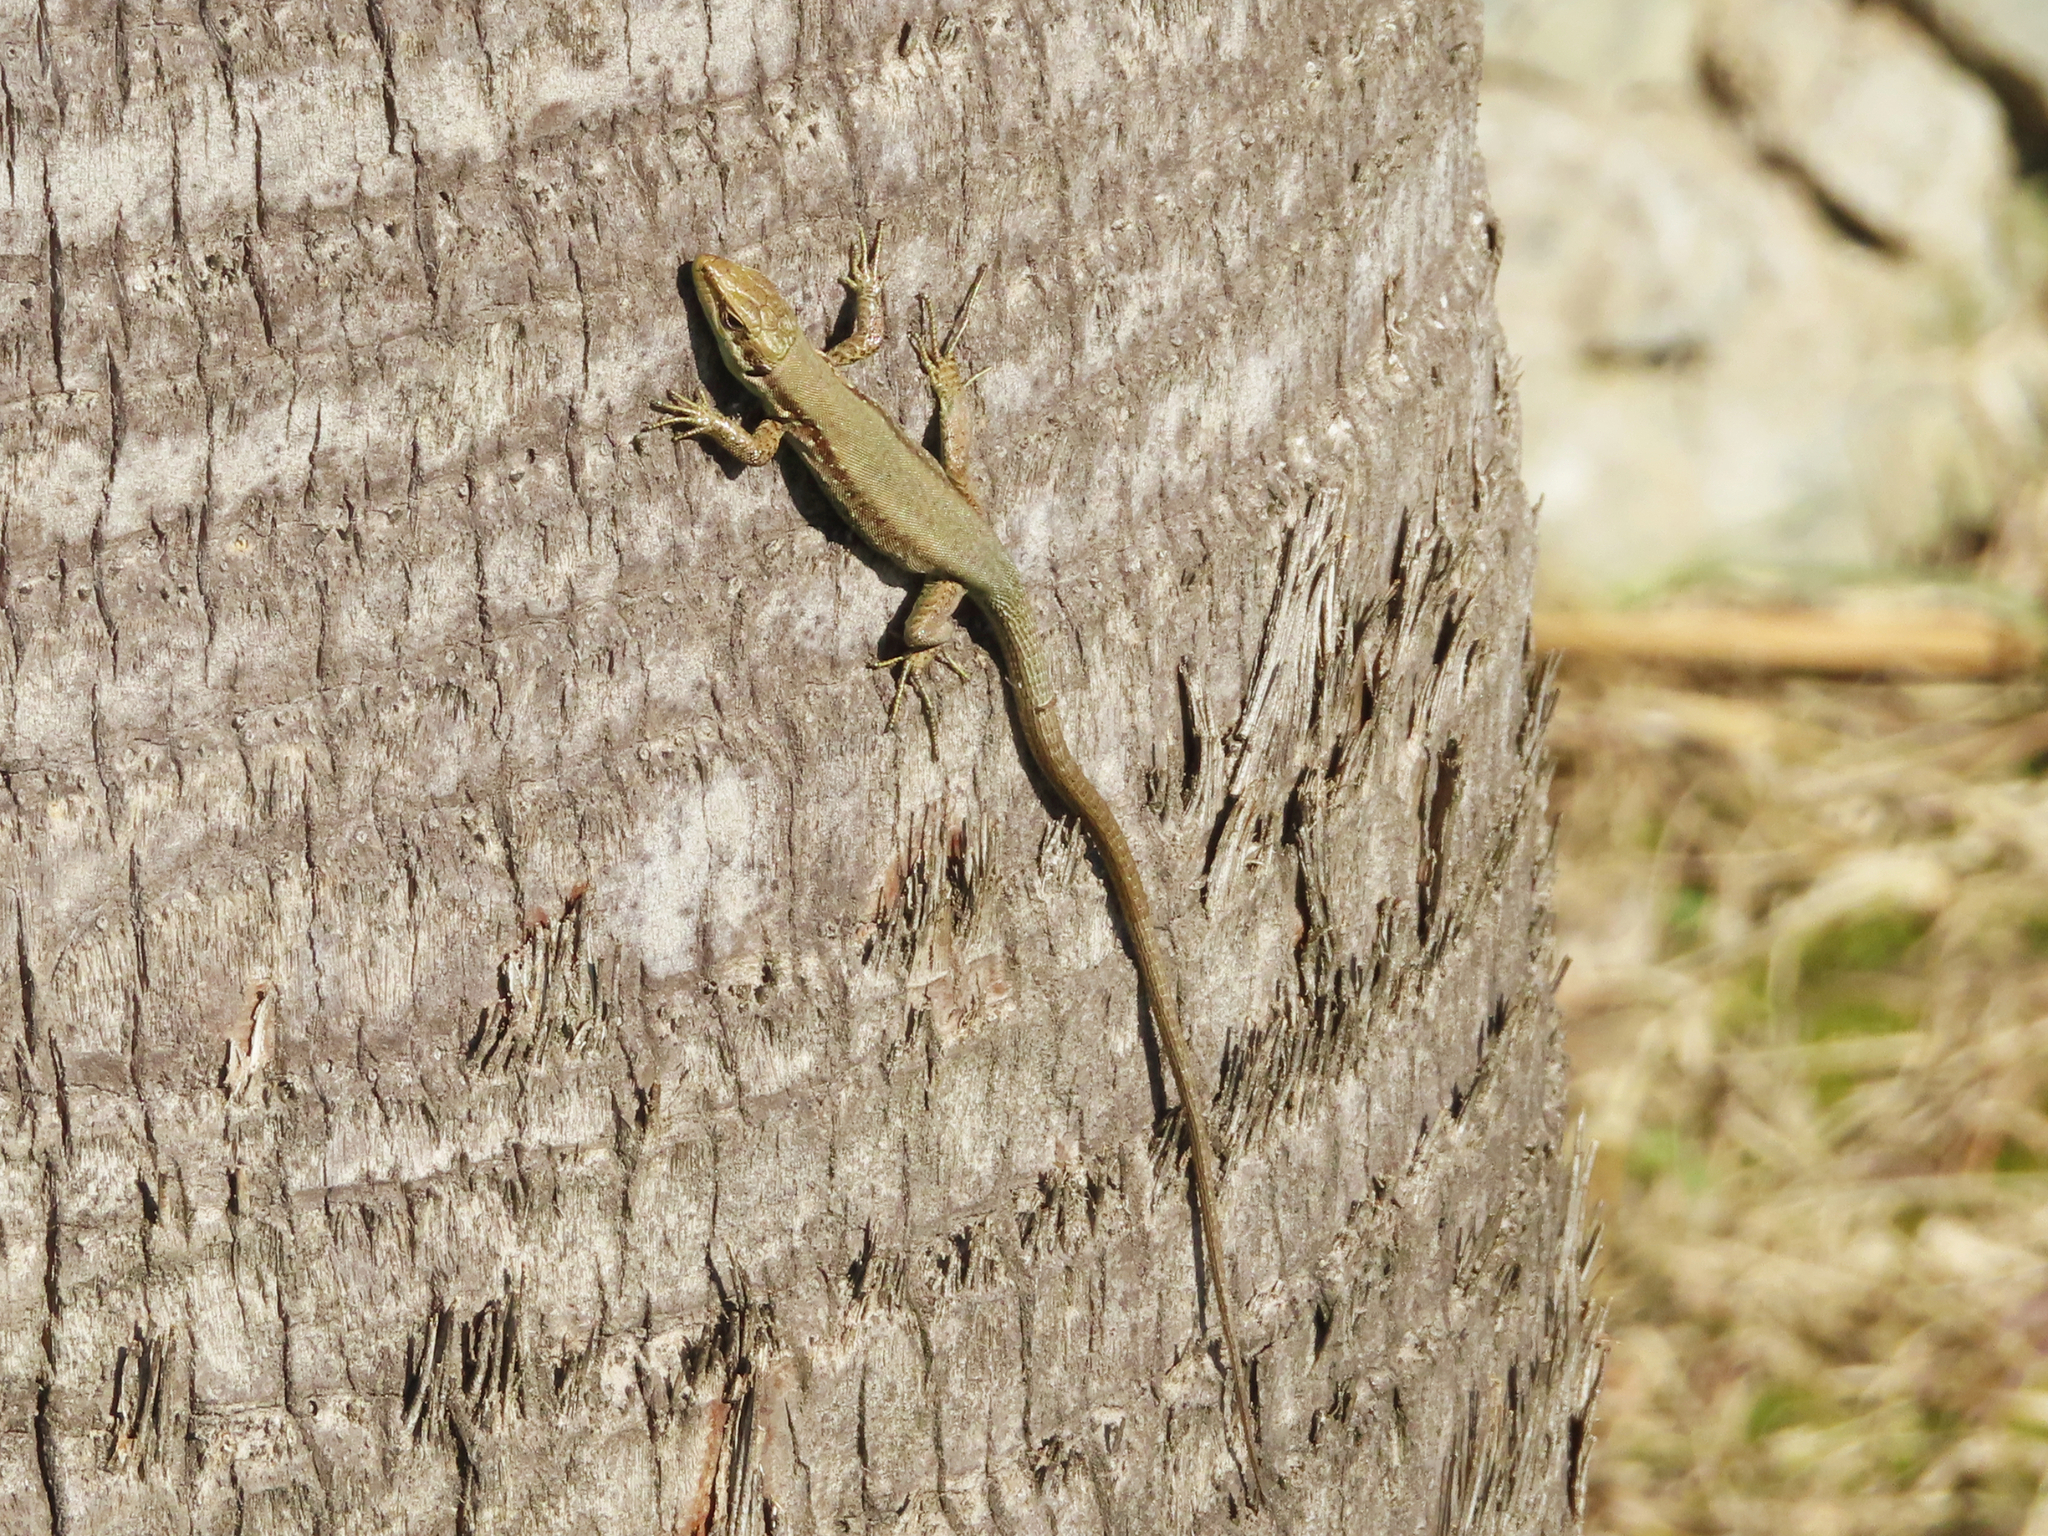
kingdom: Animalia
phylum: Chordata
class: Squamata
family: Lacertidae
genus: Phoenicolacerta
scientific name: Phoenicolacerta laevis
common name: Lebanon lizard
